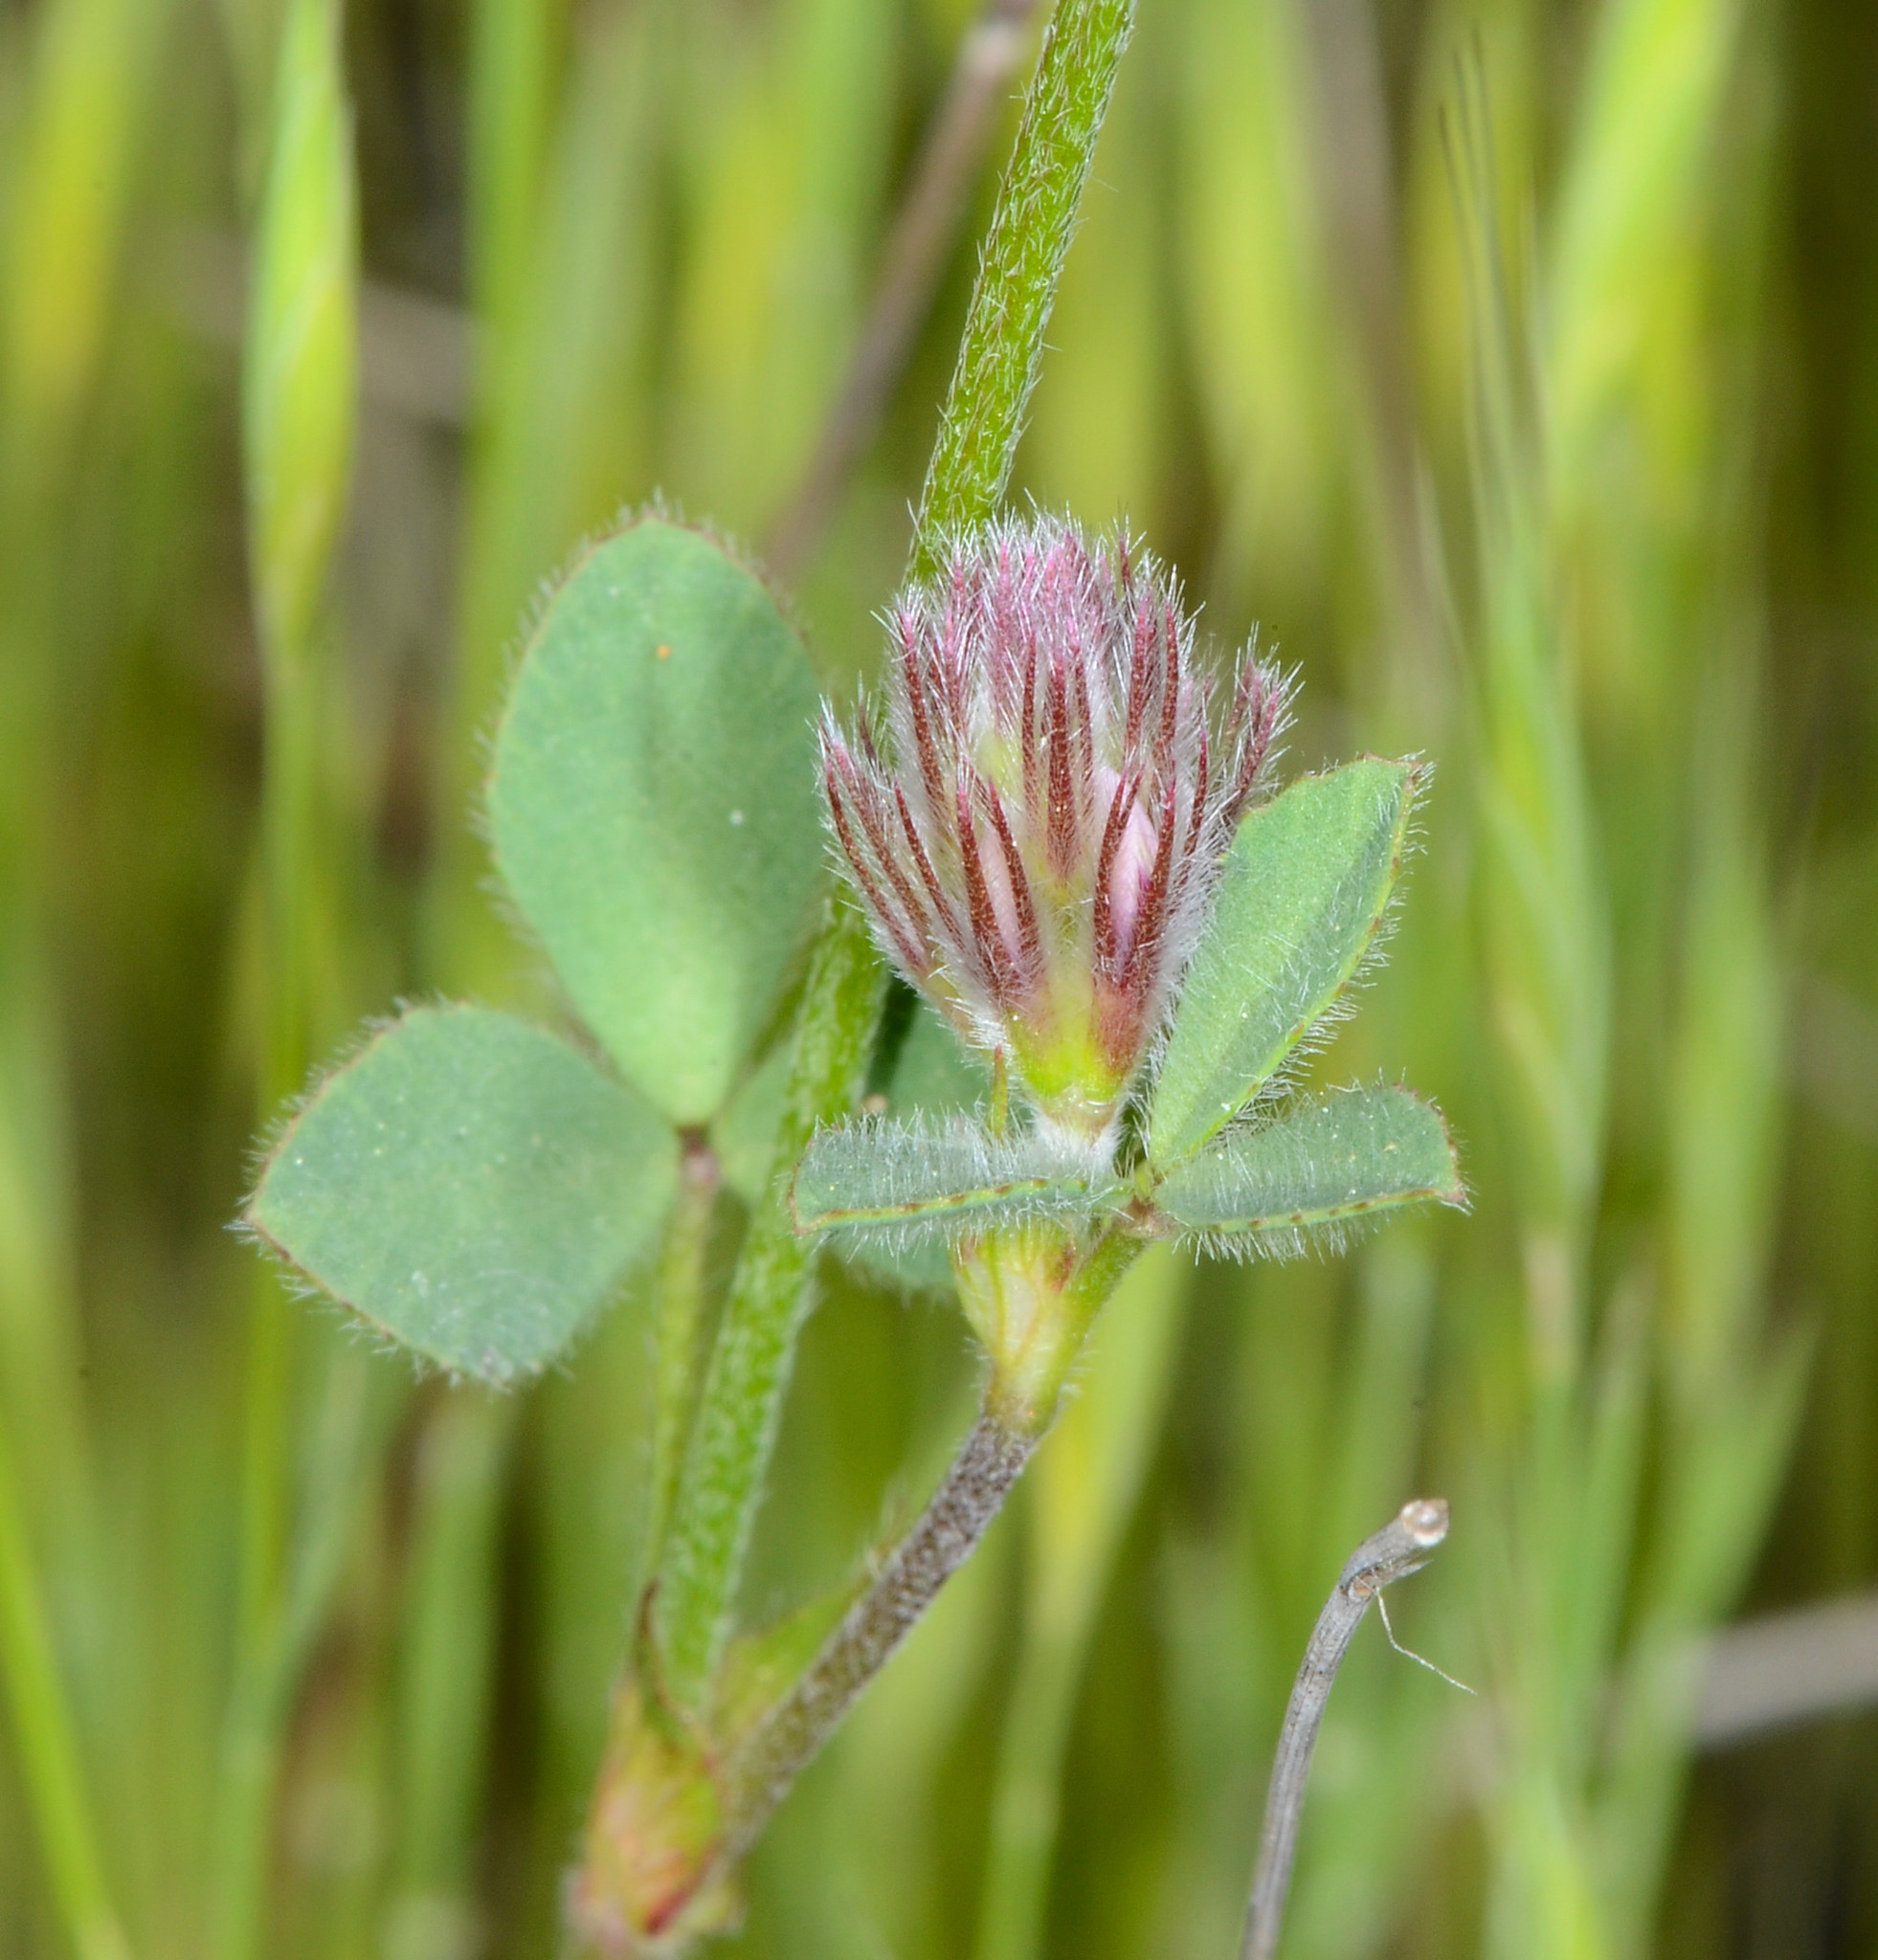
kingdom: Plantae
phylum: Tracheophyta
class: Magnoliopsida
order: Fabales
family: Fabaceae
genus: Trifolium
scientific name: Trifolium dichotomum
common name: Branched indian clover
